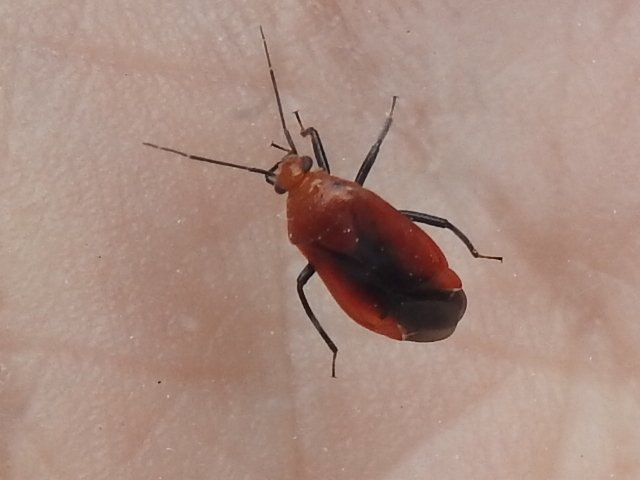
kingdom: Animalia
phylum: Arthropoda
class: Insecta
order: Hemiptera
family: Miridae
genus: Tropidosteptes
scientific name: Tropidosteptes cardinalis
